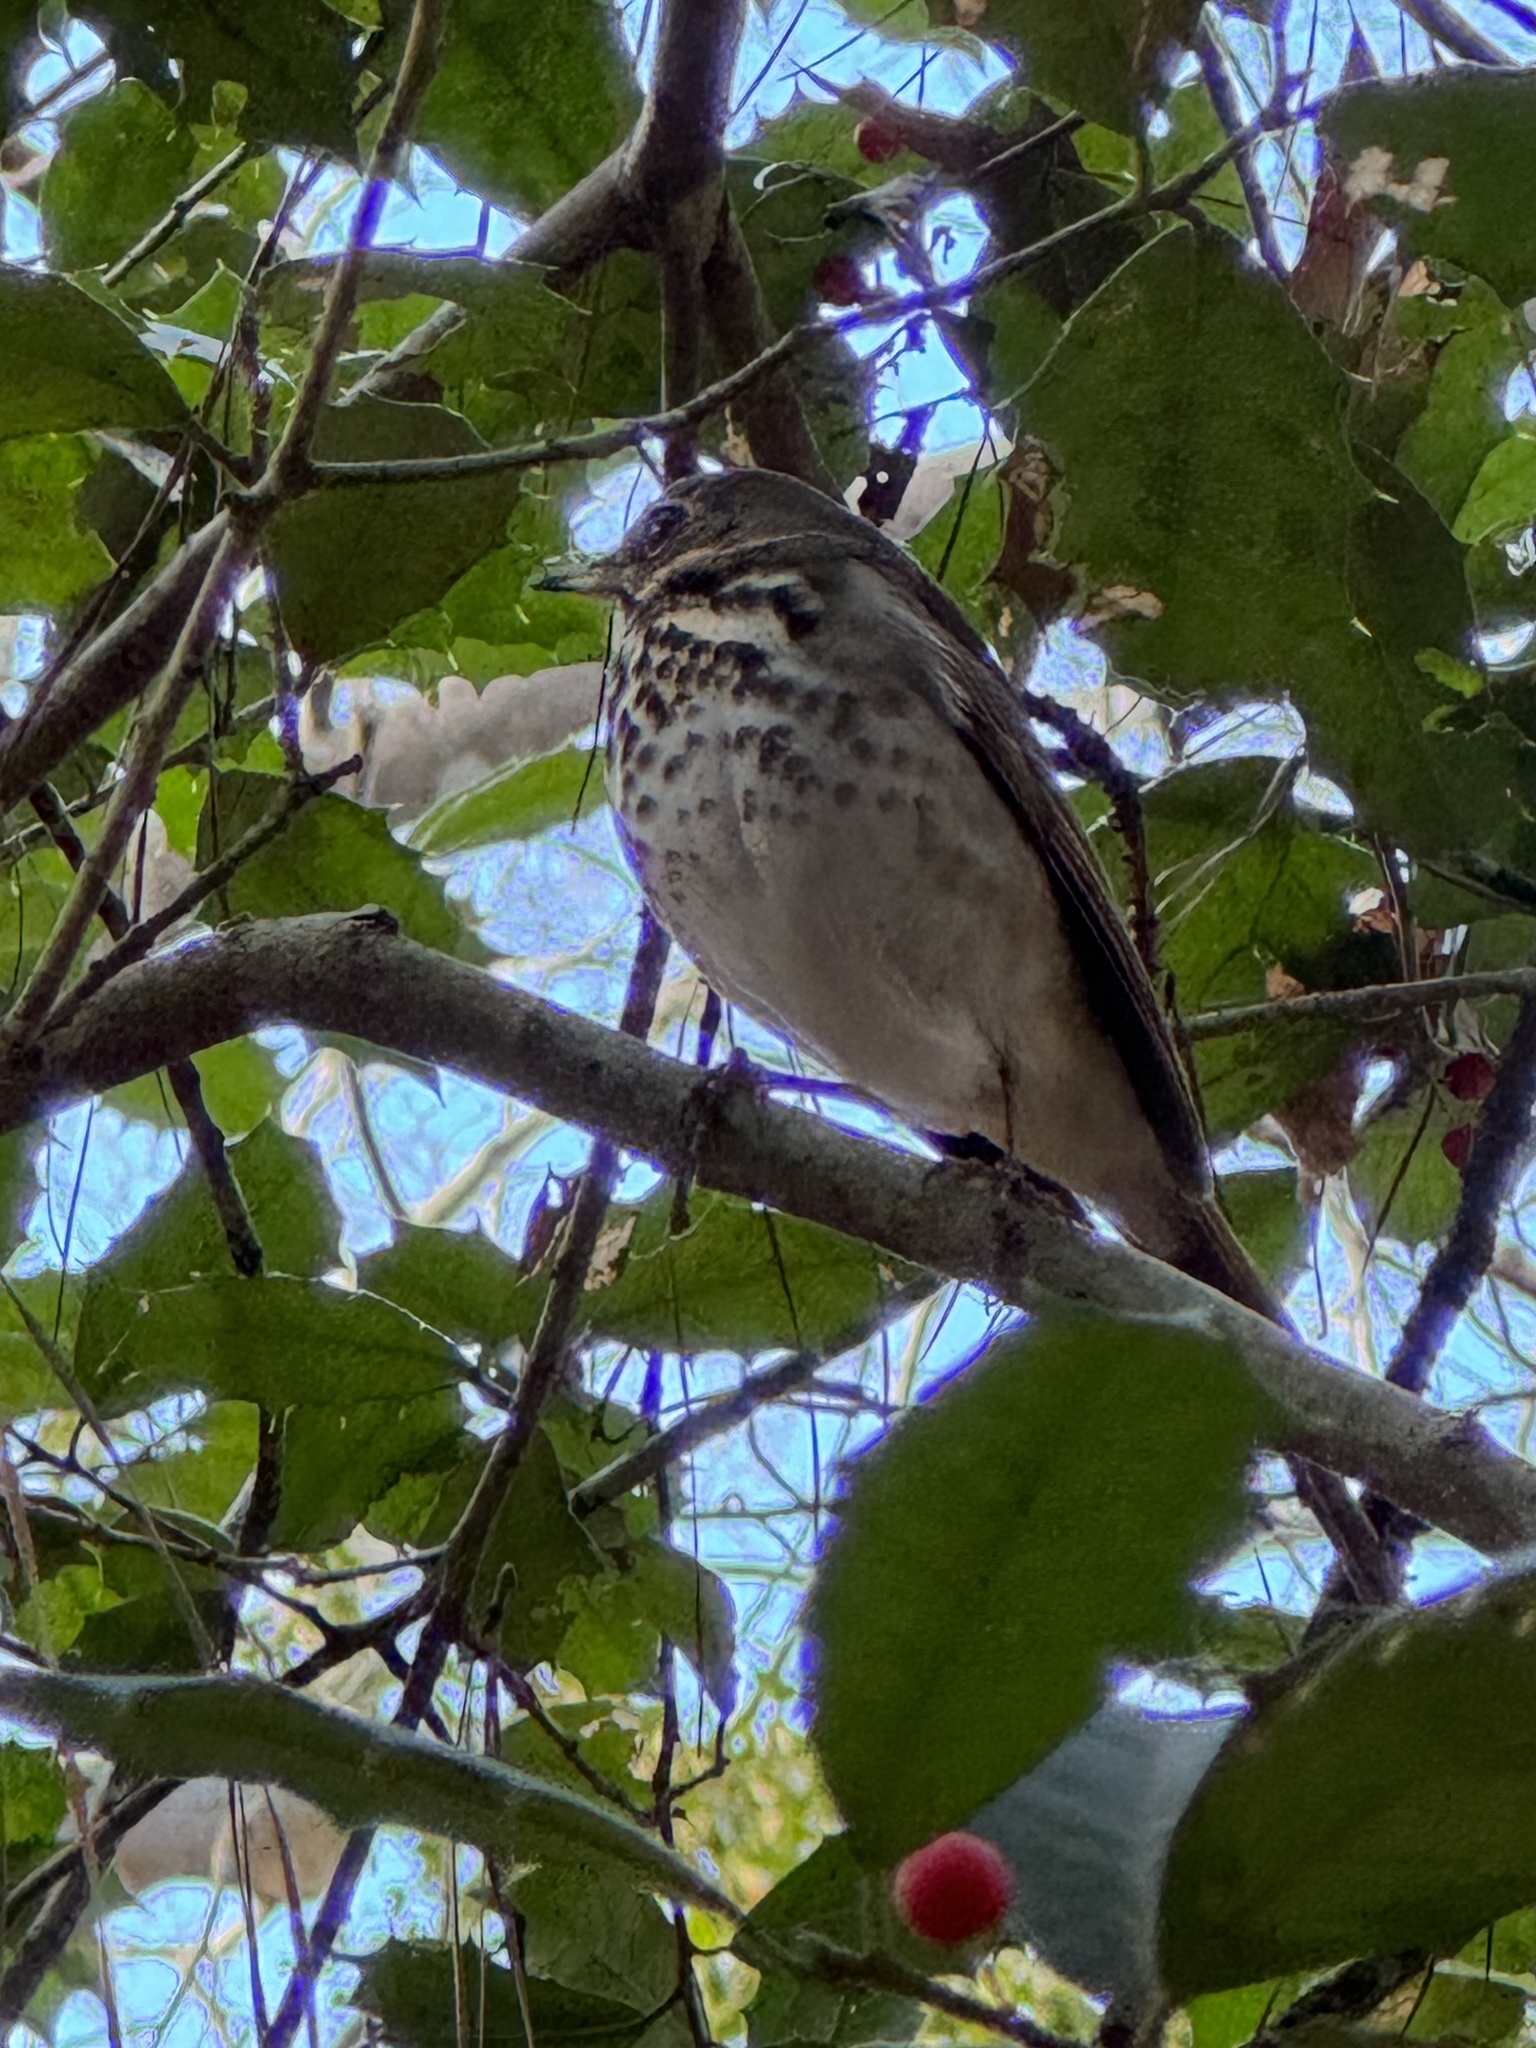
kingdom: Animalia
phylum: Chordata
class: Aves
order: Passeriformes
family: Turdidae
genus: Catharus
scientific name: Catharus guttatus
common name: Hermit thrush
